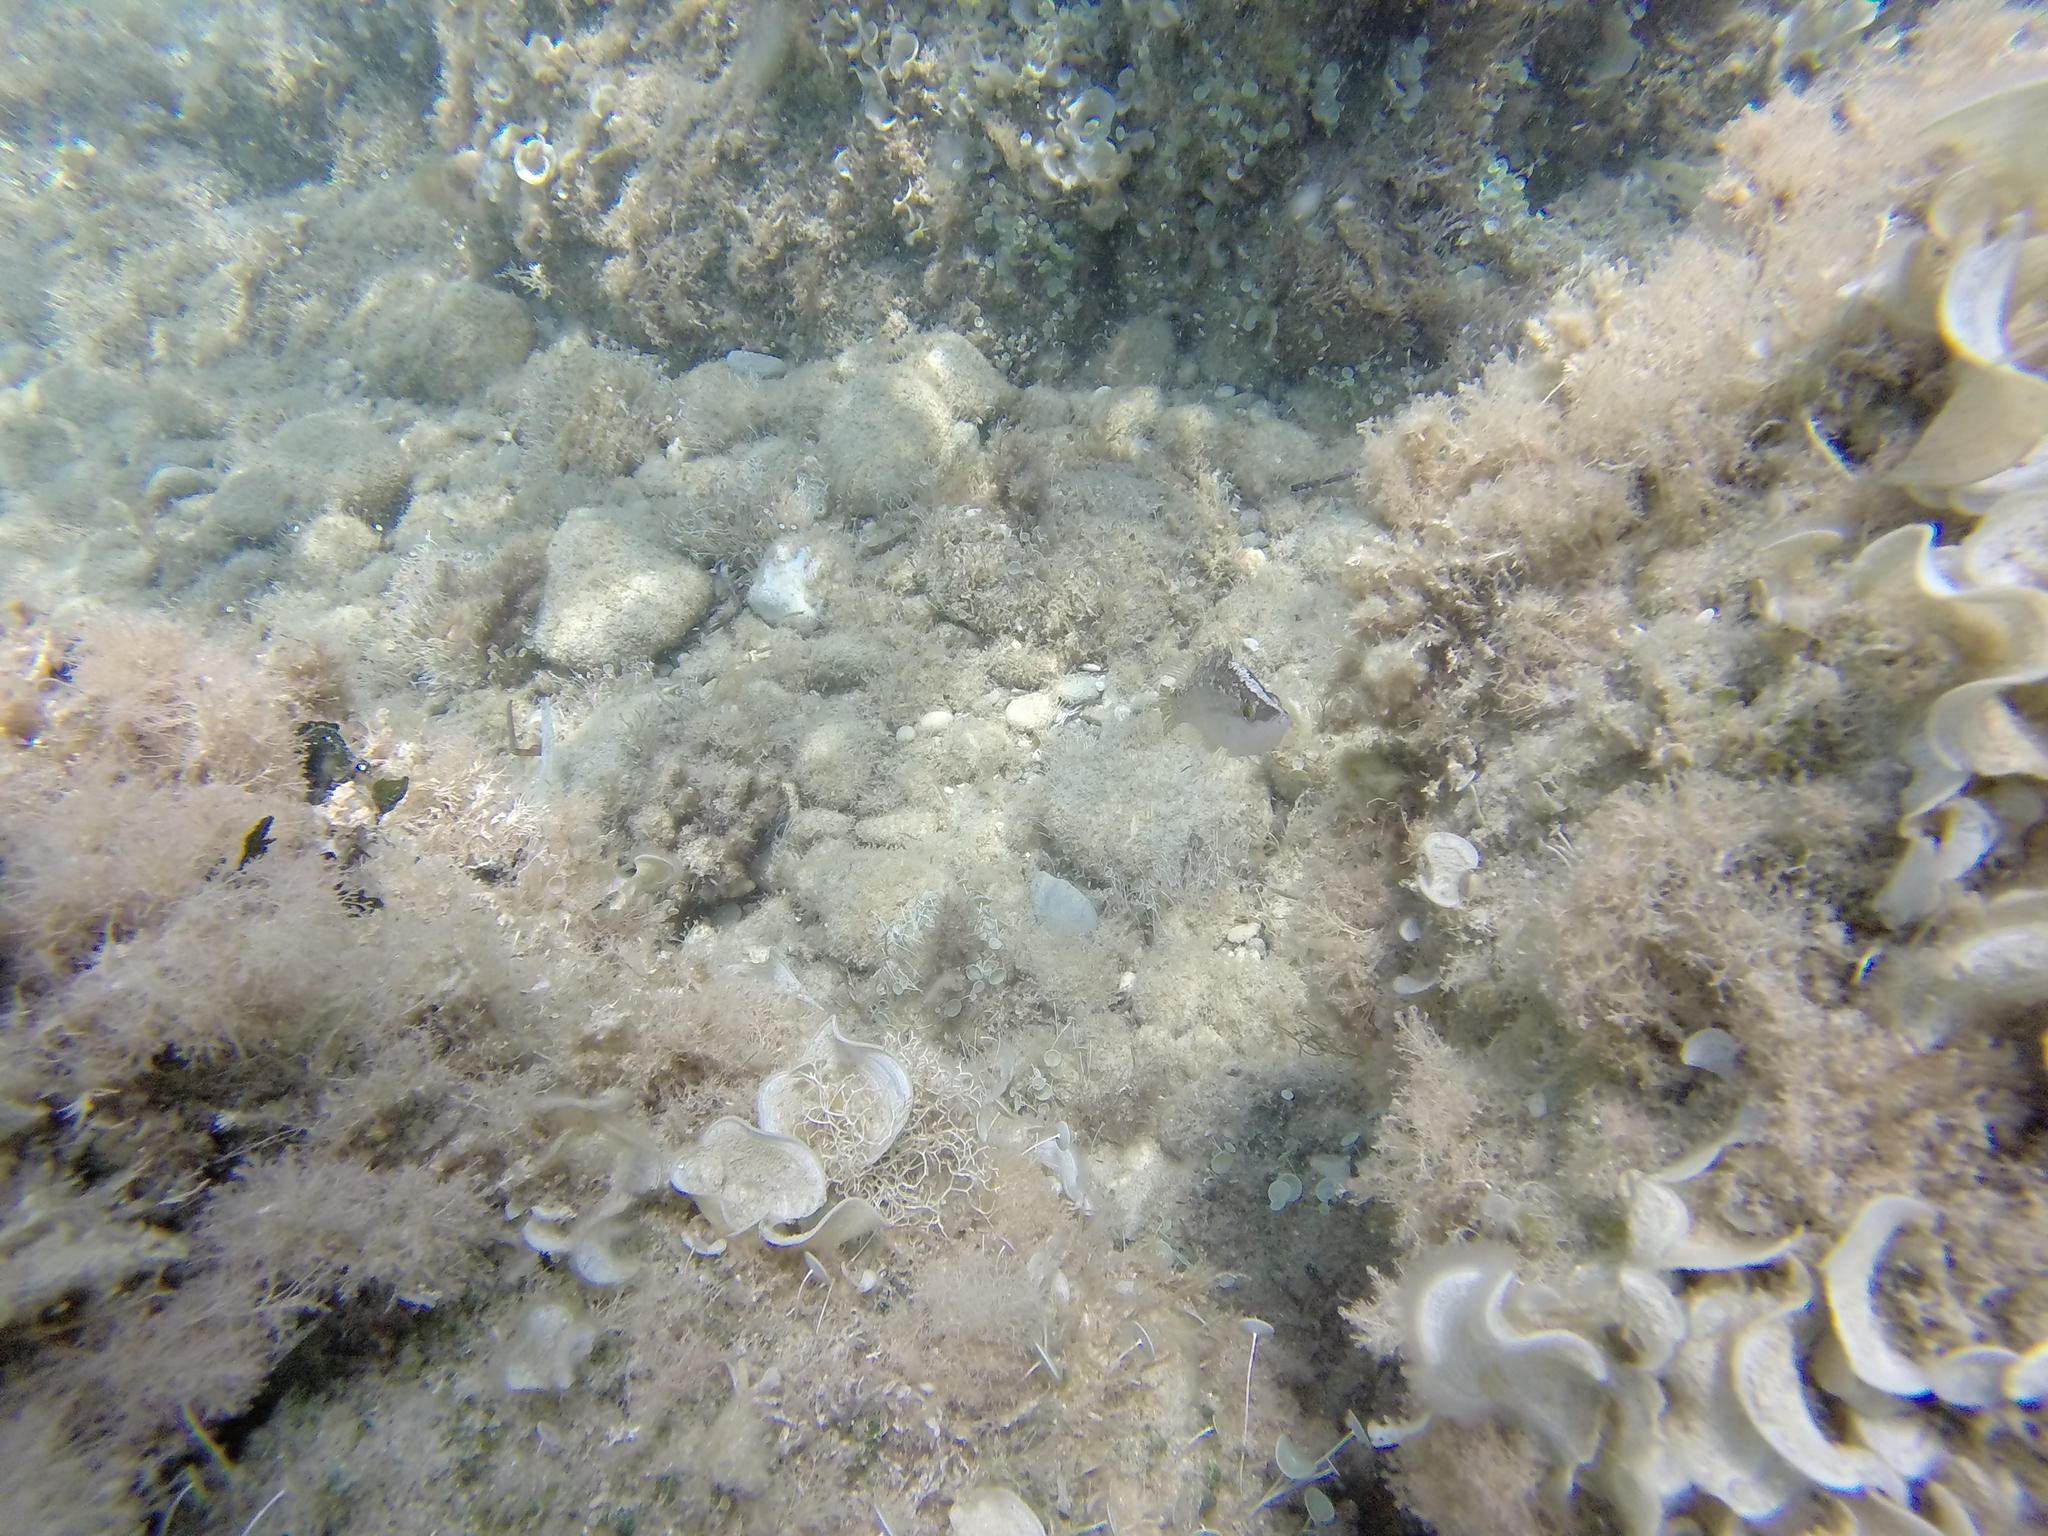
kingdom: Animalia
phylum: Chordata
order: Perciformes
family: Labridae
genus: Symphodus
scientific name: Symphodus rostratus
